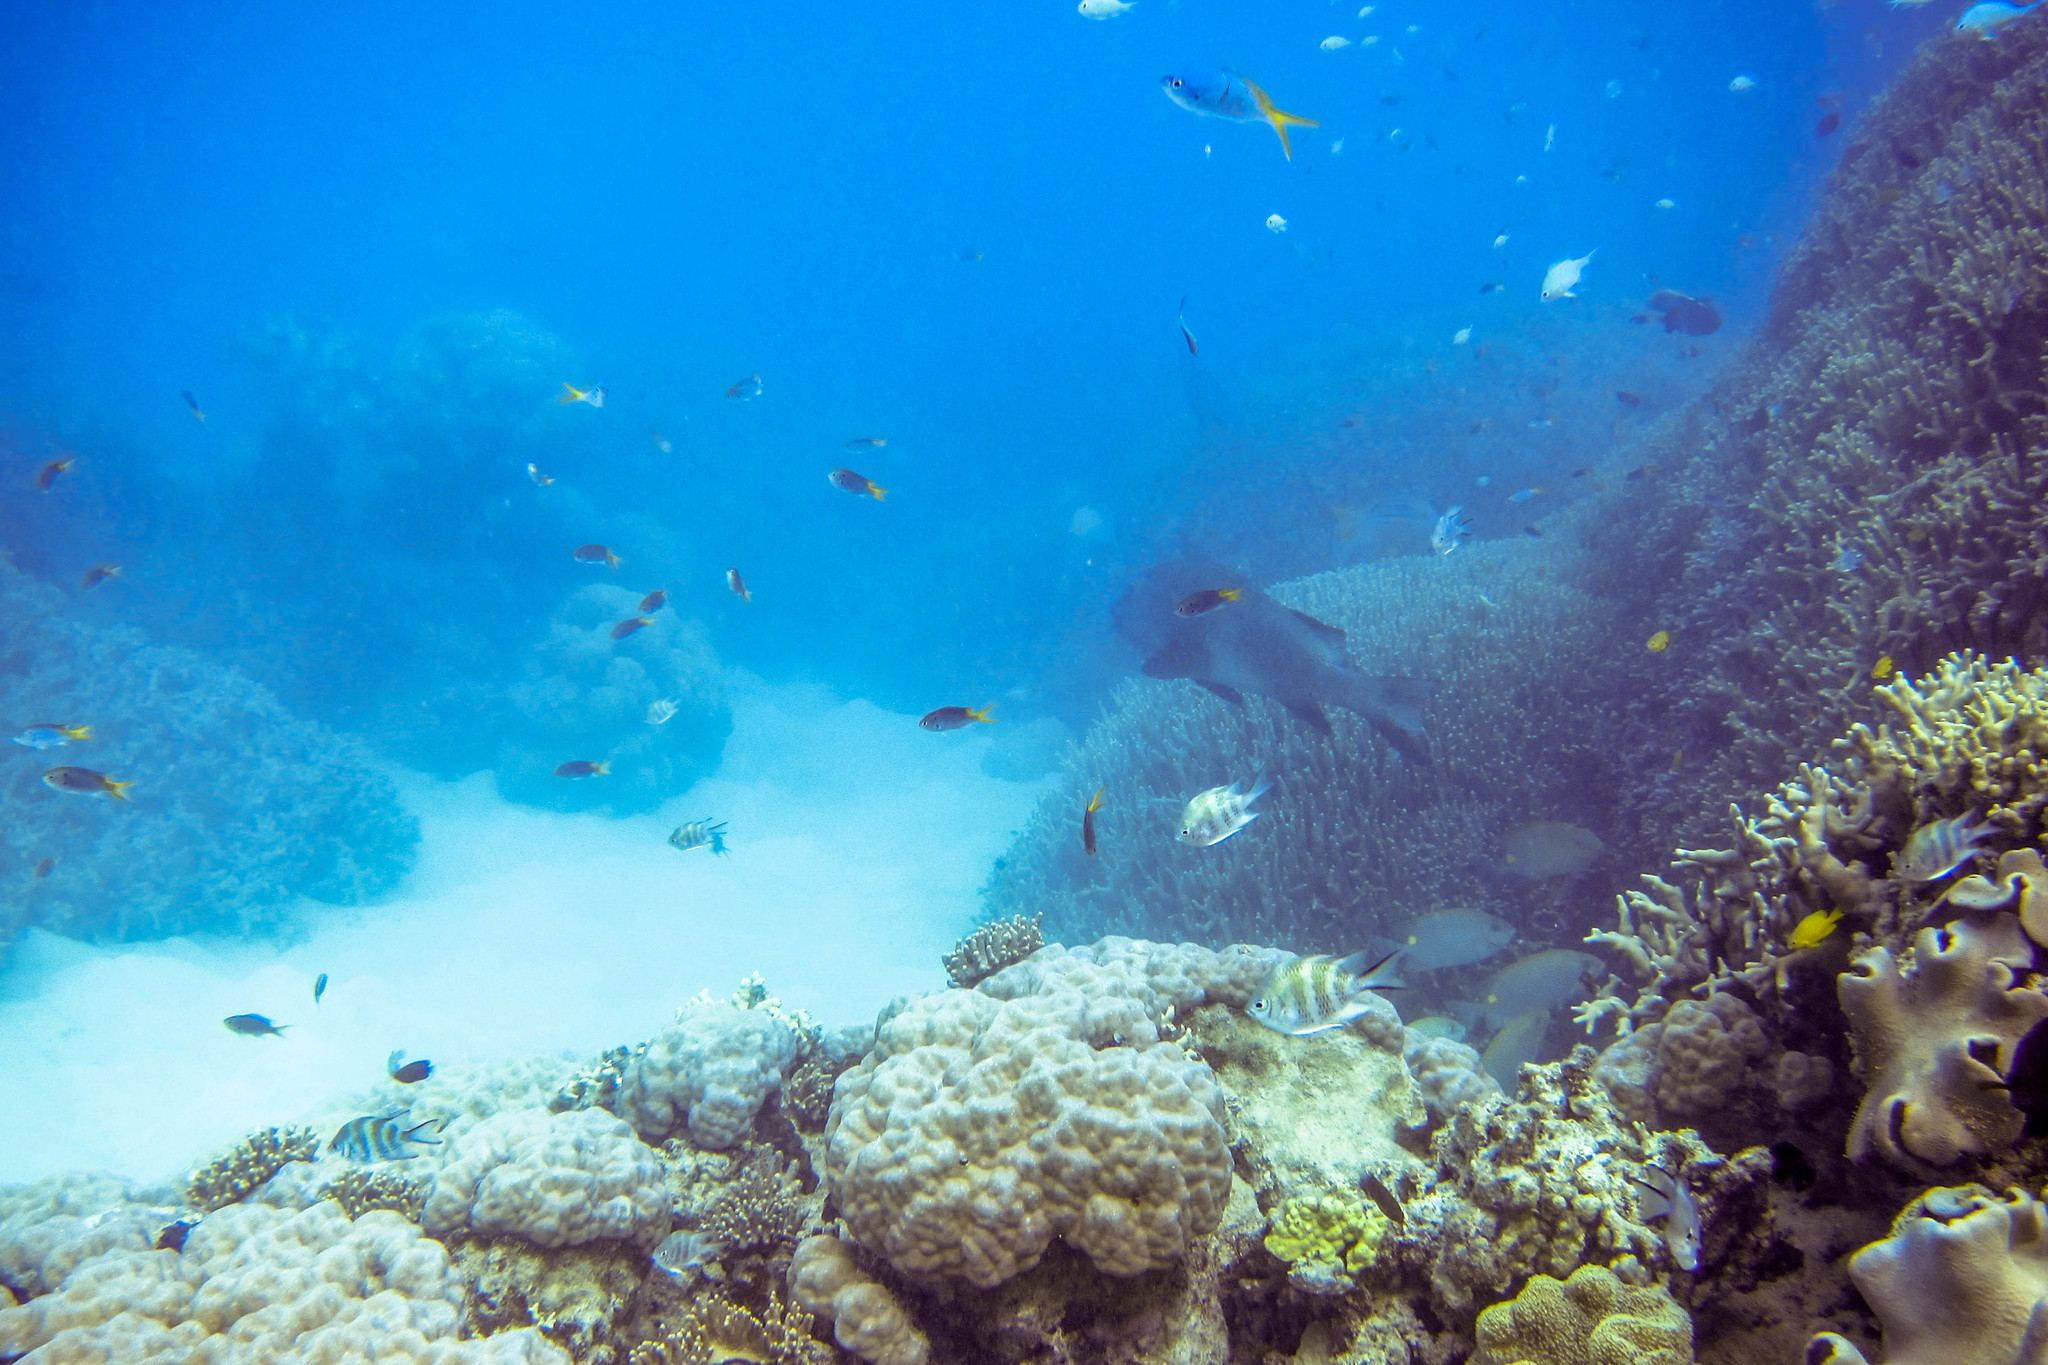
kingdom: Animalia
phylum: Chordata
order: Perciformes
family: Pomacentridae
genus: Amblyglyphidodon
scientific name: Amblyglyphidodon curacao
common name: Staghorn damsel
